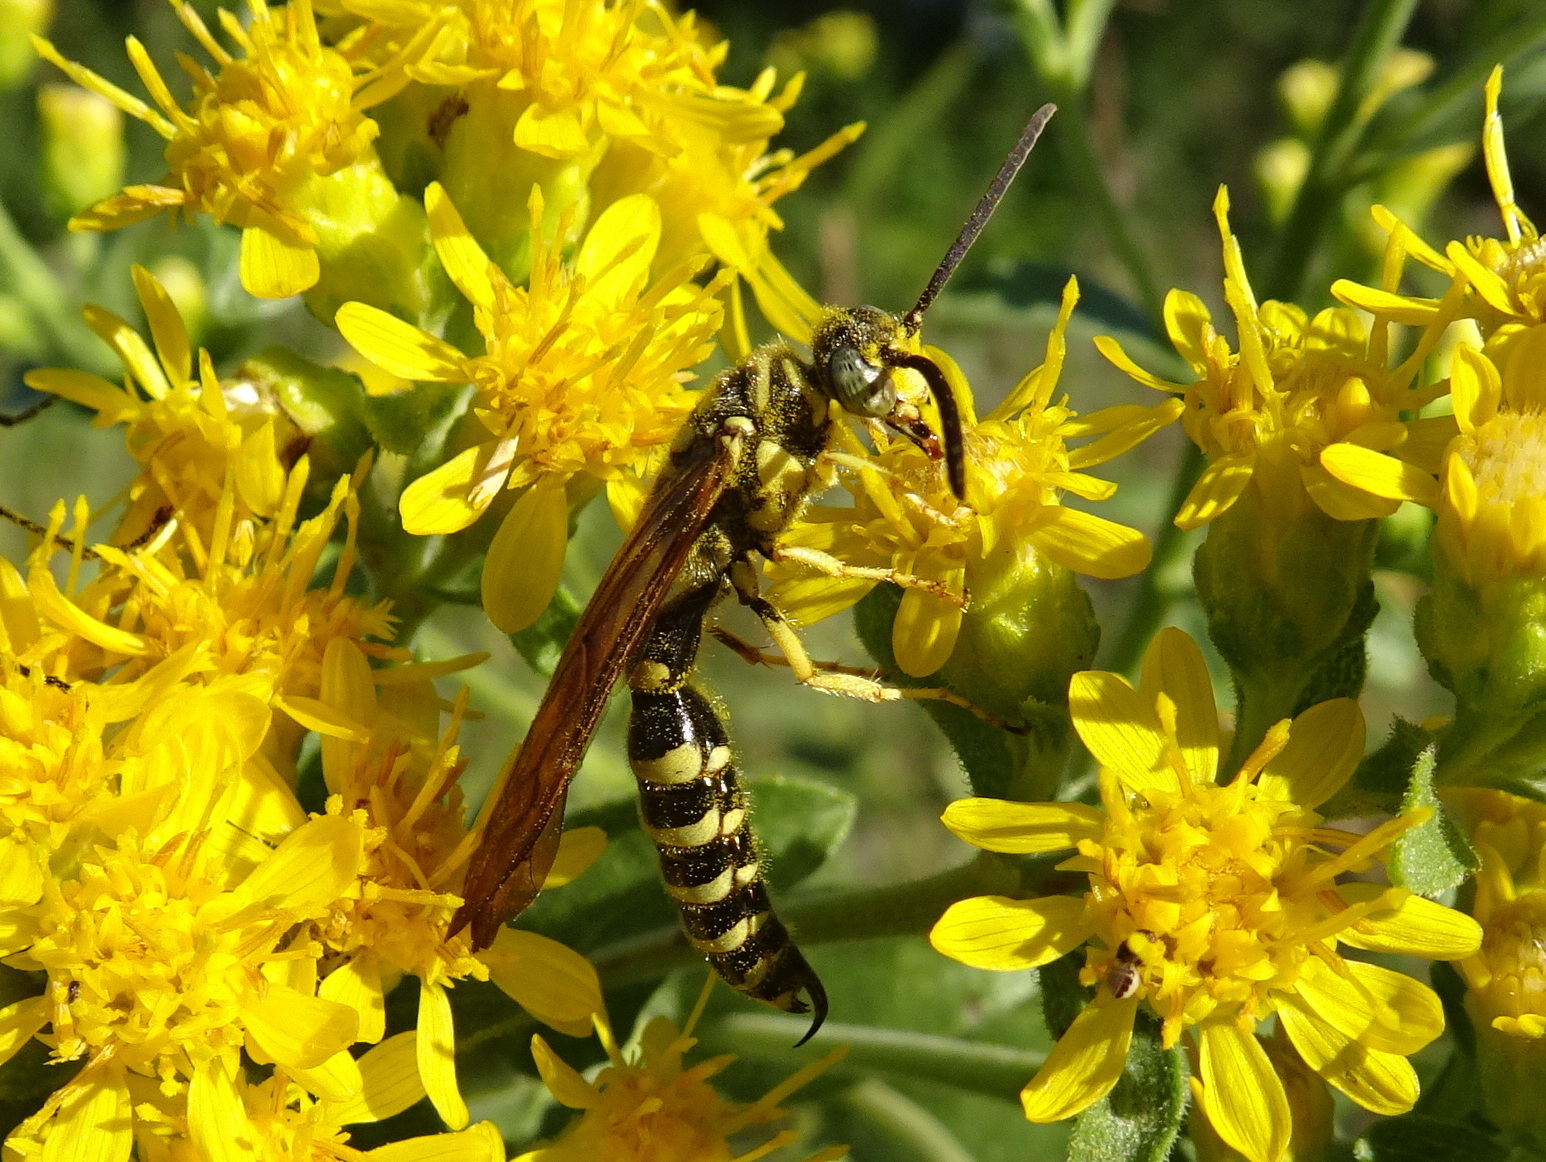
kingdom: Animalia
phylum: Arthropoda
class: Insecta
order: Hymenoptera
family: Tiphiidae
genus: Myzinum
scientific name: Myzinum quinquecinctum
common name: Five-banded thynnid wasp
